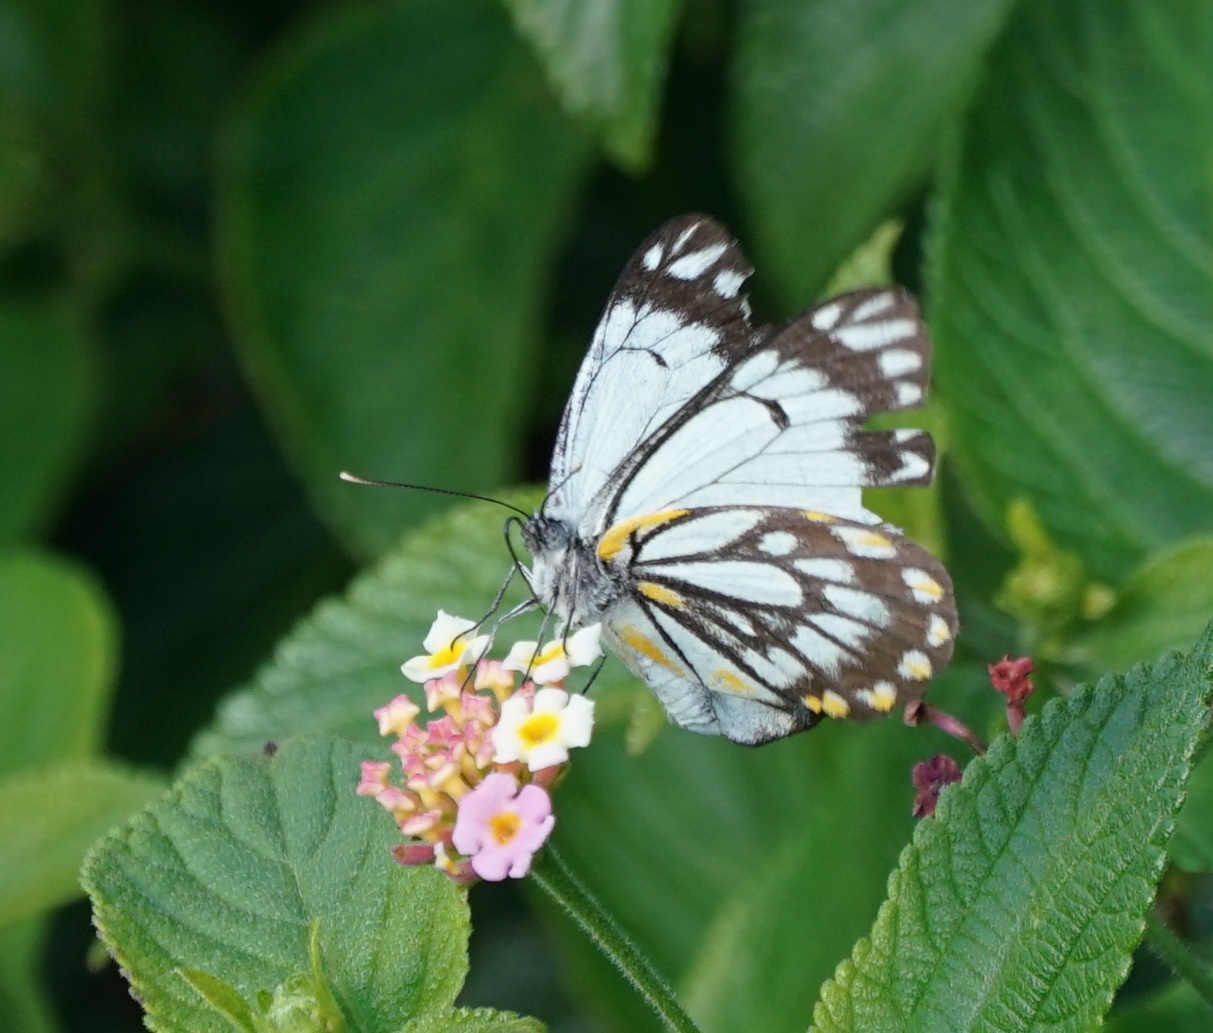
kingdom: Animalia
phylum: Arthropoda
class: Insecta
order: Lepidoptera
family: Pieridae
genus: Belenois
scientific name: Belenois java
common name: Caper white
